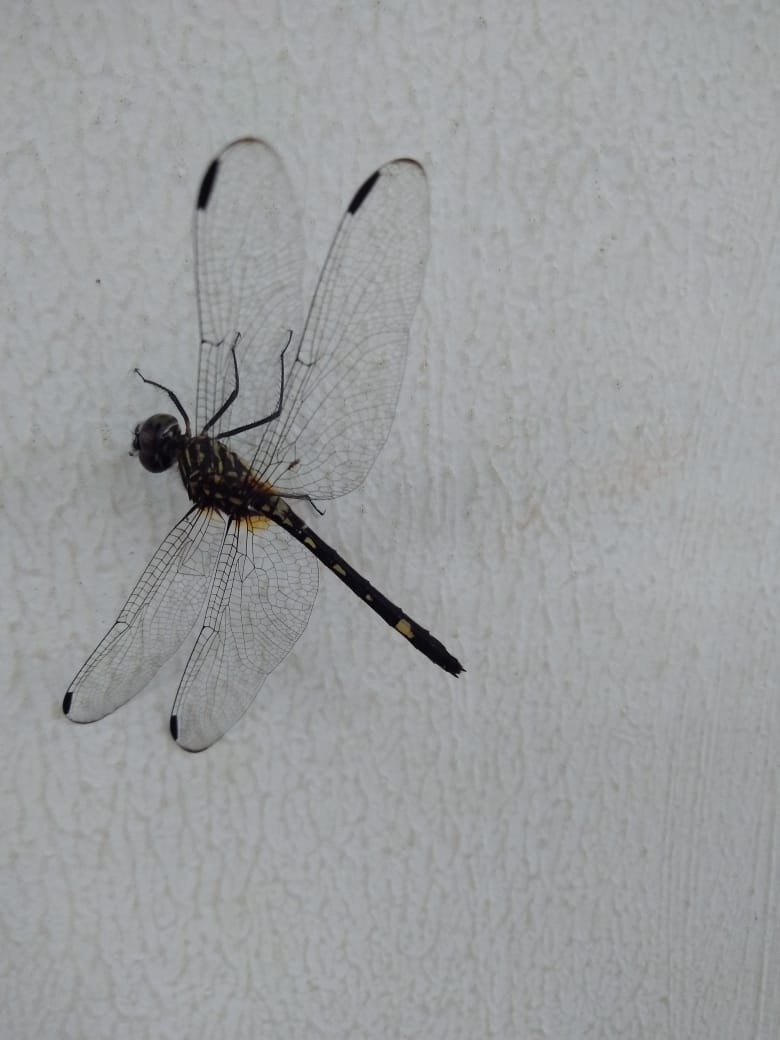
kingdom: Animalia
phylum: Arthropoda
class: Insecta
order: Odonata
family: Libellulidae
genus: Dythemis
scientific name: Dythemis nigra
